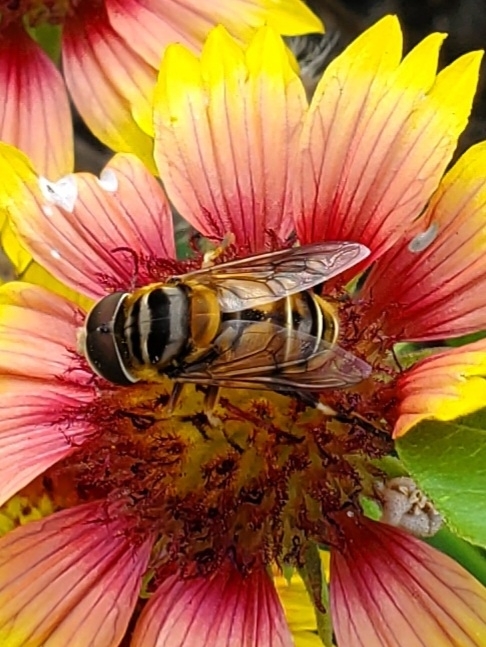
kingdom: Animalia
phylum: Arthropoda
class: Insecta
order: Diptera
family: Syrphidae
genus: Palpada
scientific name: Palpada vinetorum
